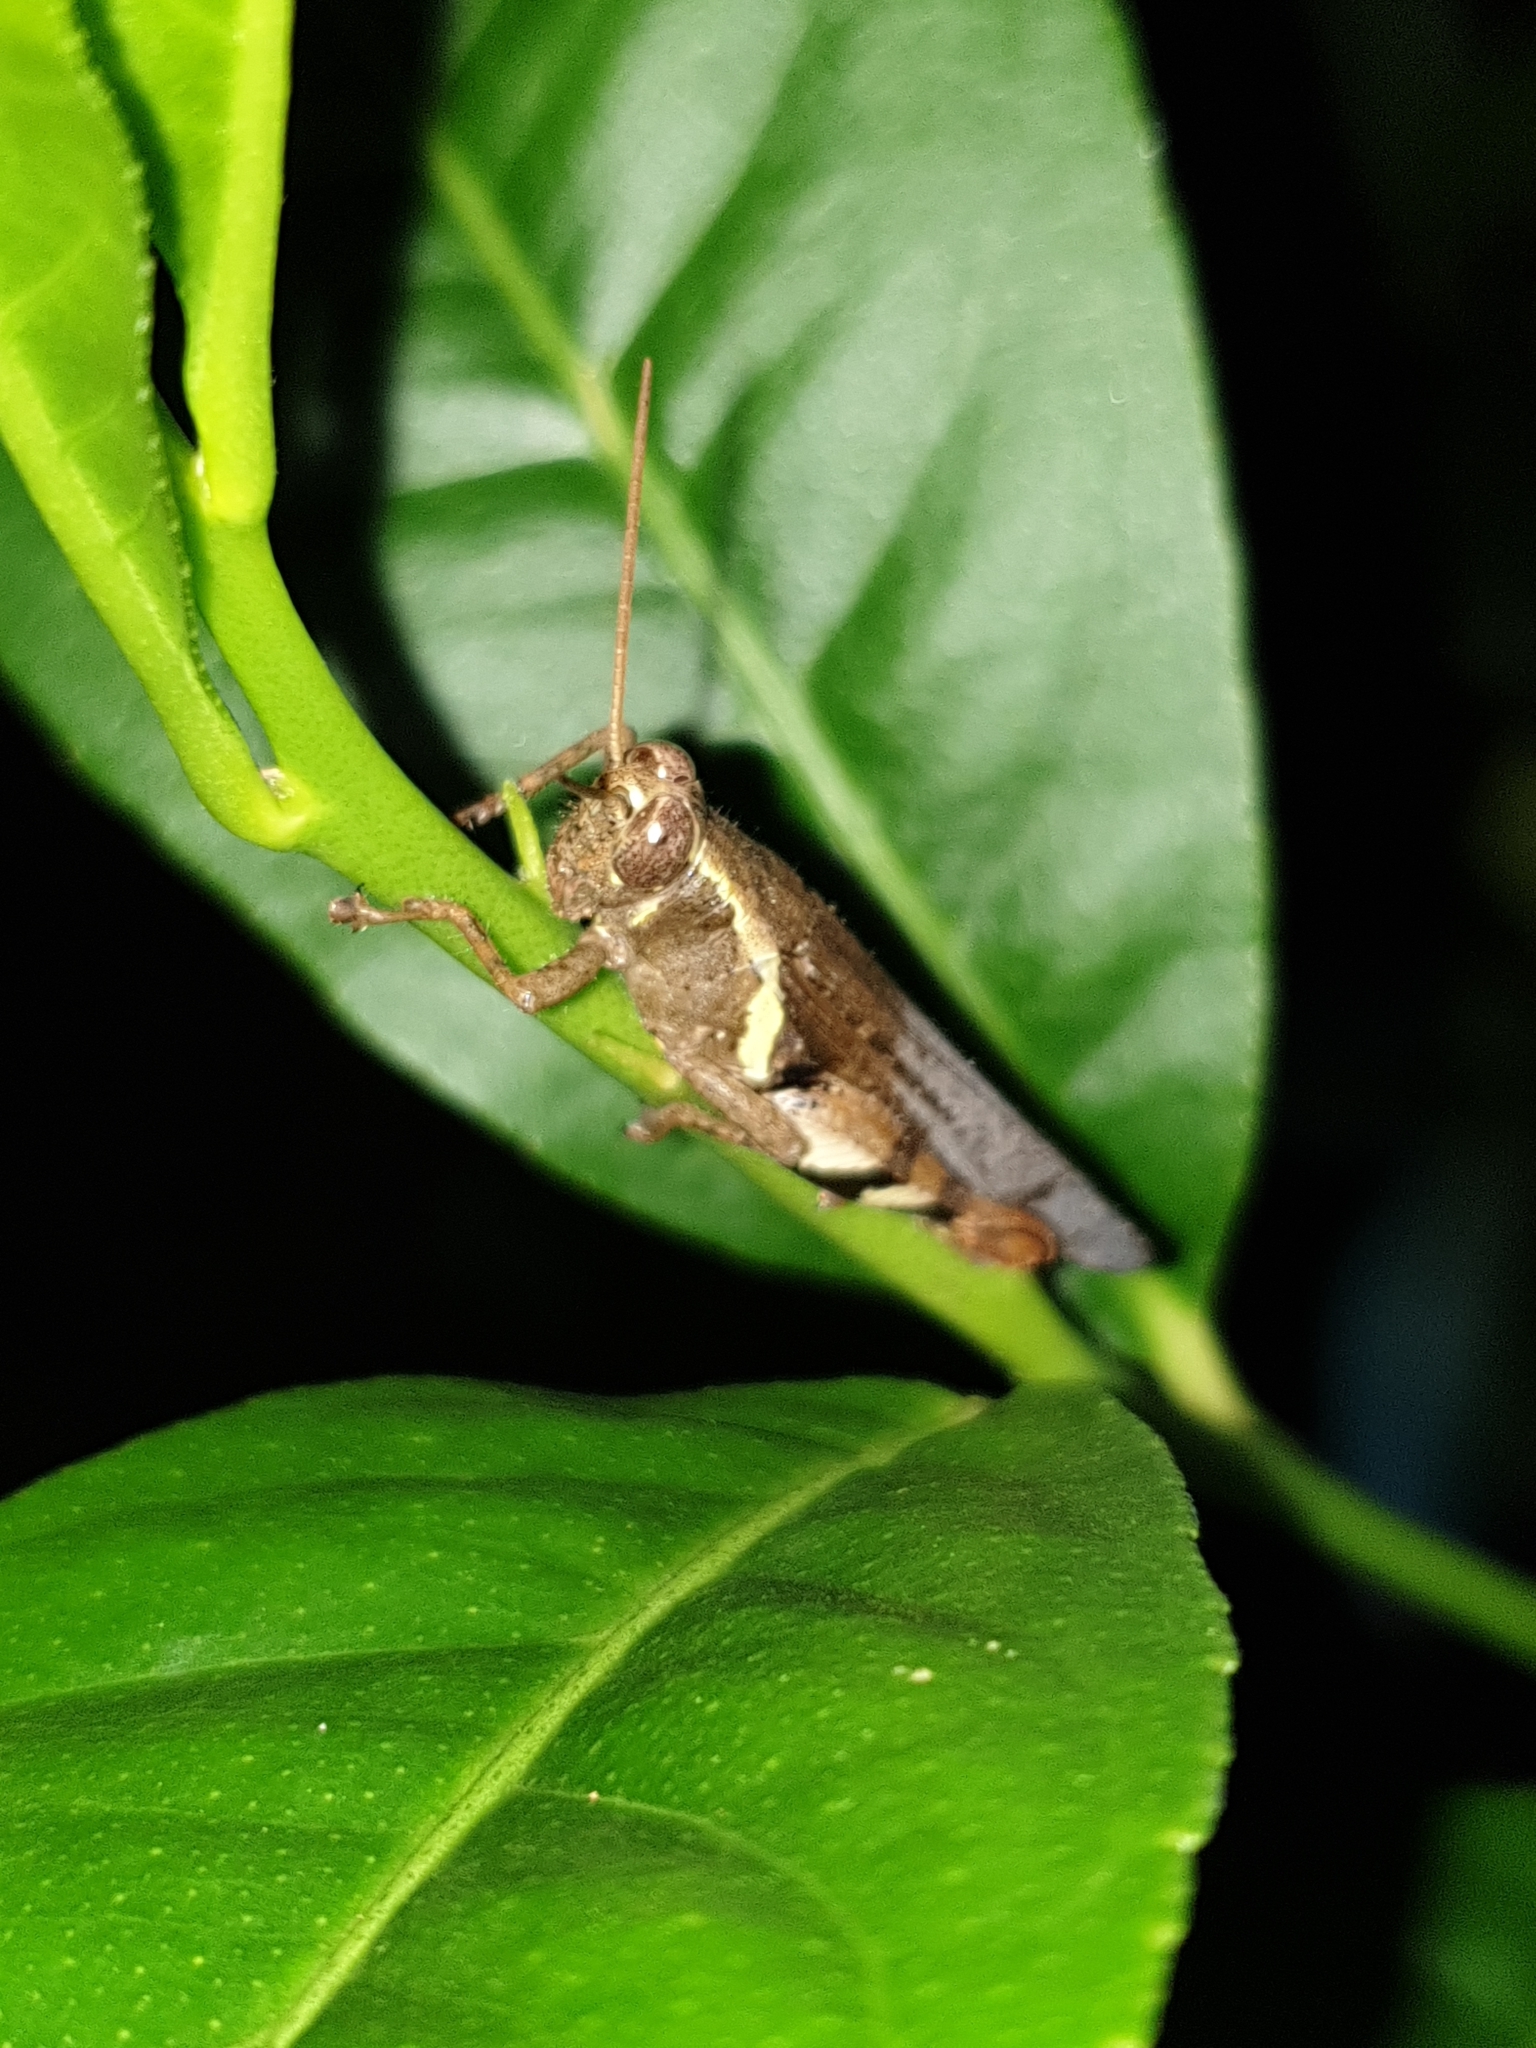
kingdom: Animalia
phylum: Arthropoda
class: Insecta
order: Orthoptera
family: Acrididae
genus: Xenocatantops
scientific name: Xenocatantops humile
